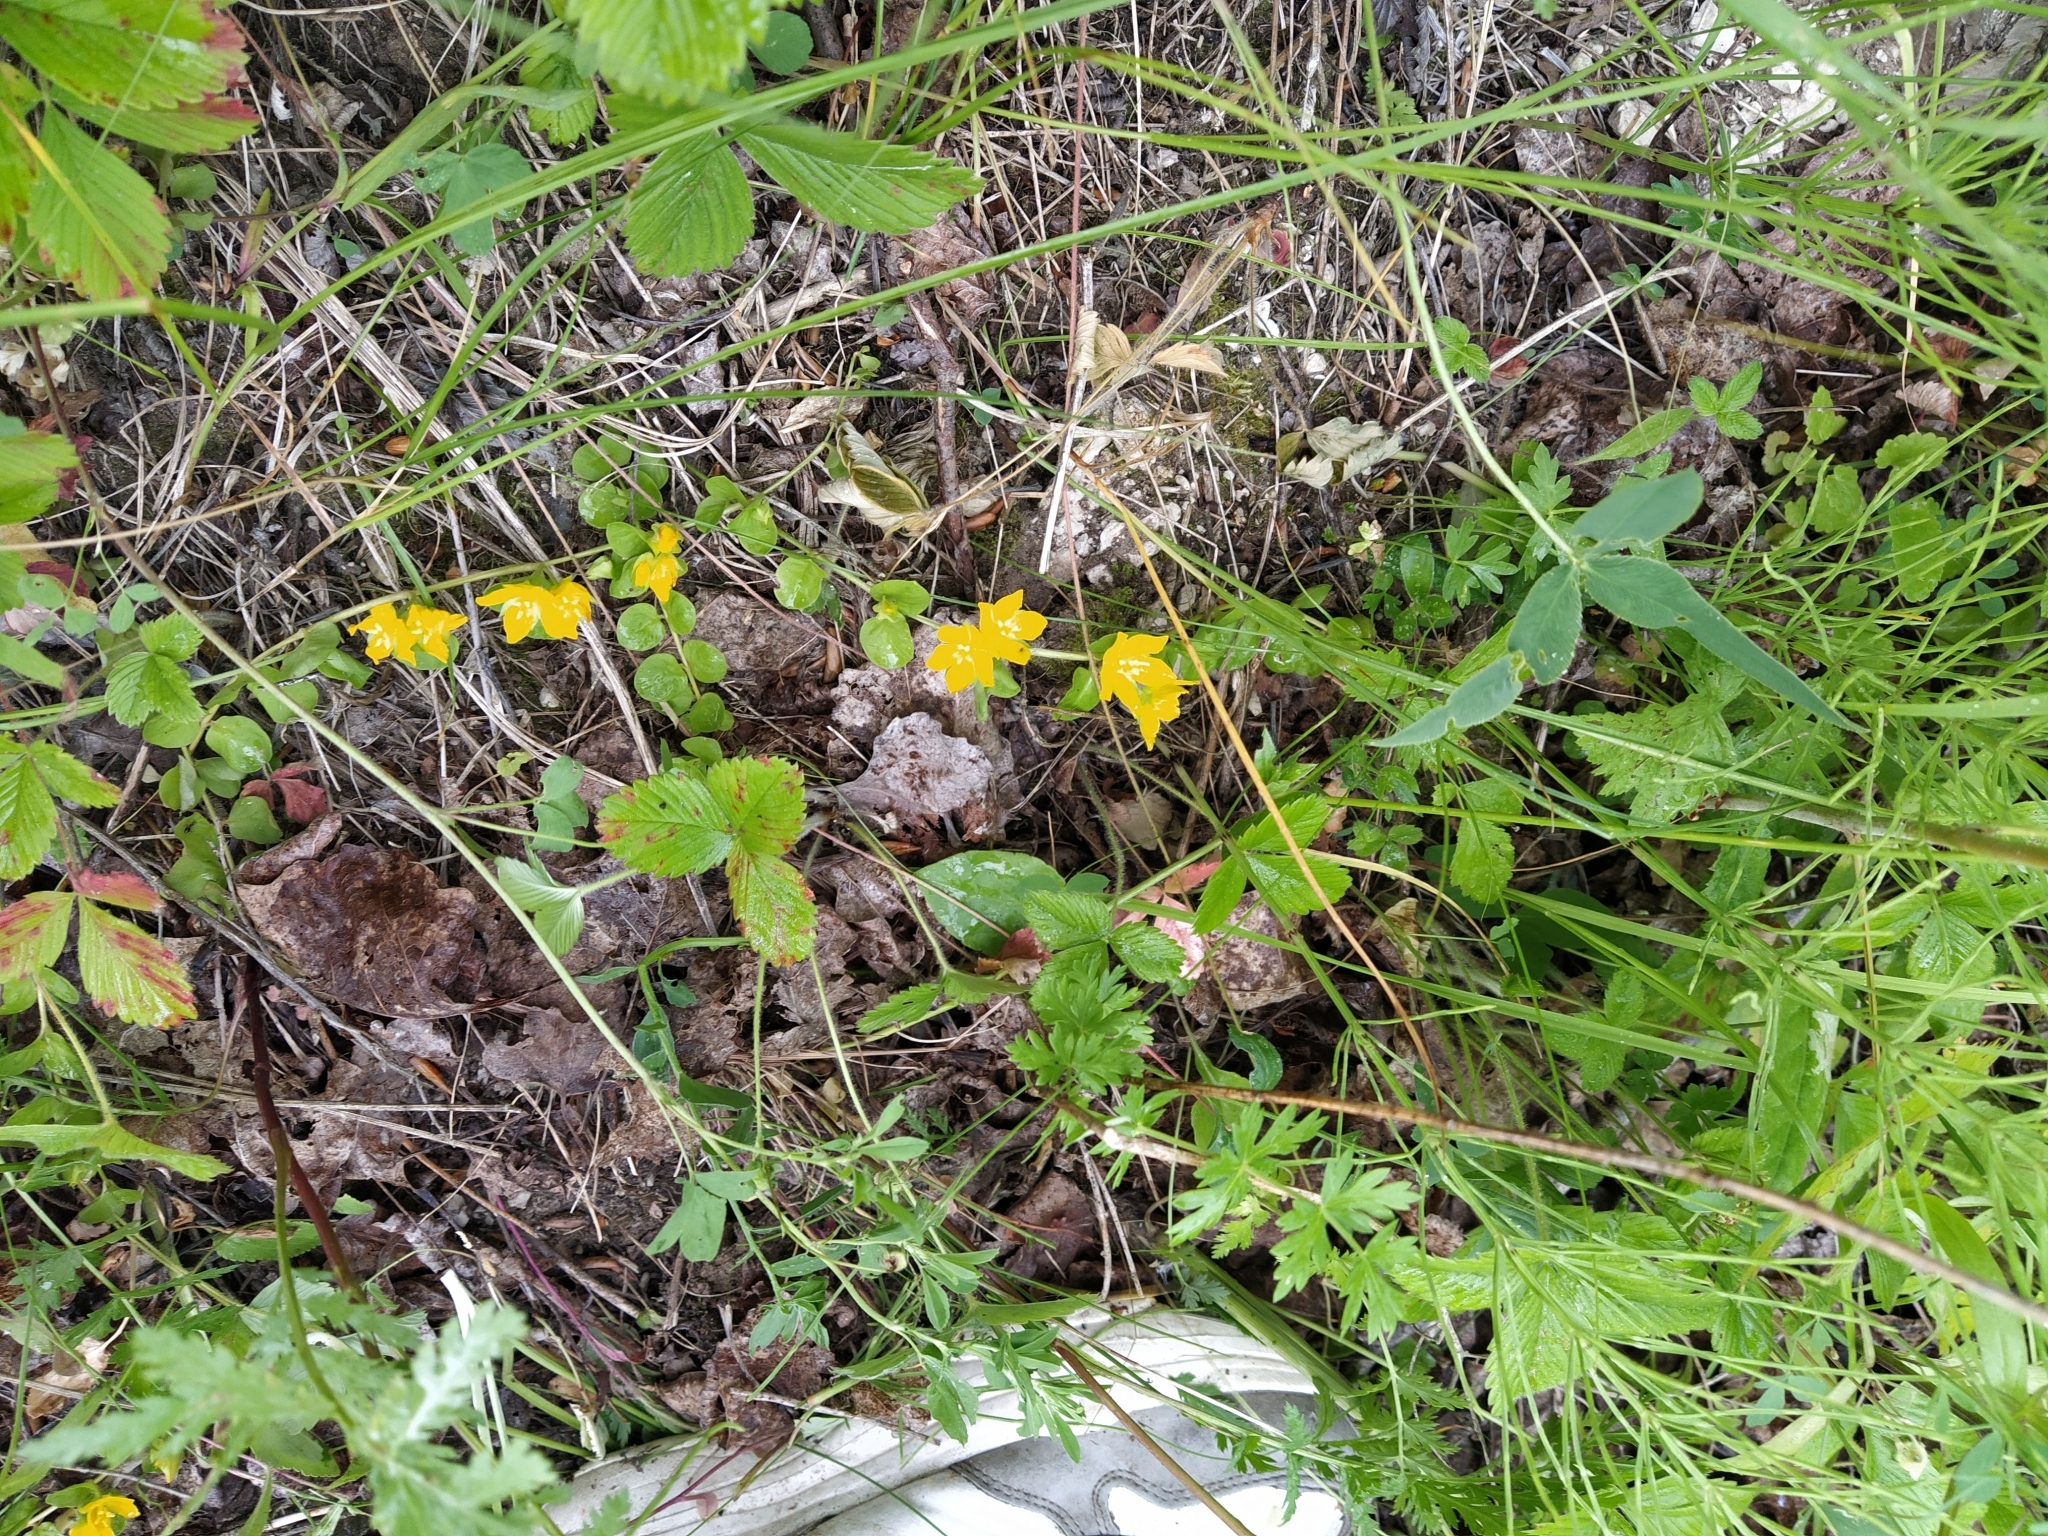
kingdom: Plantae
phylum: Tracheophyta
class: Magnoliopsida
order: Ericales
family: Primulaceae
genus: Lysimachia
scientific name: Lysimachia nummularia
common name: Moneywort
